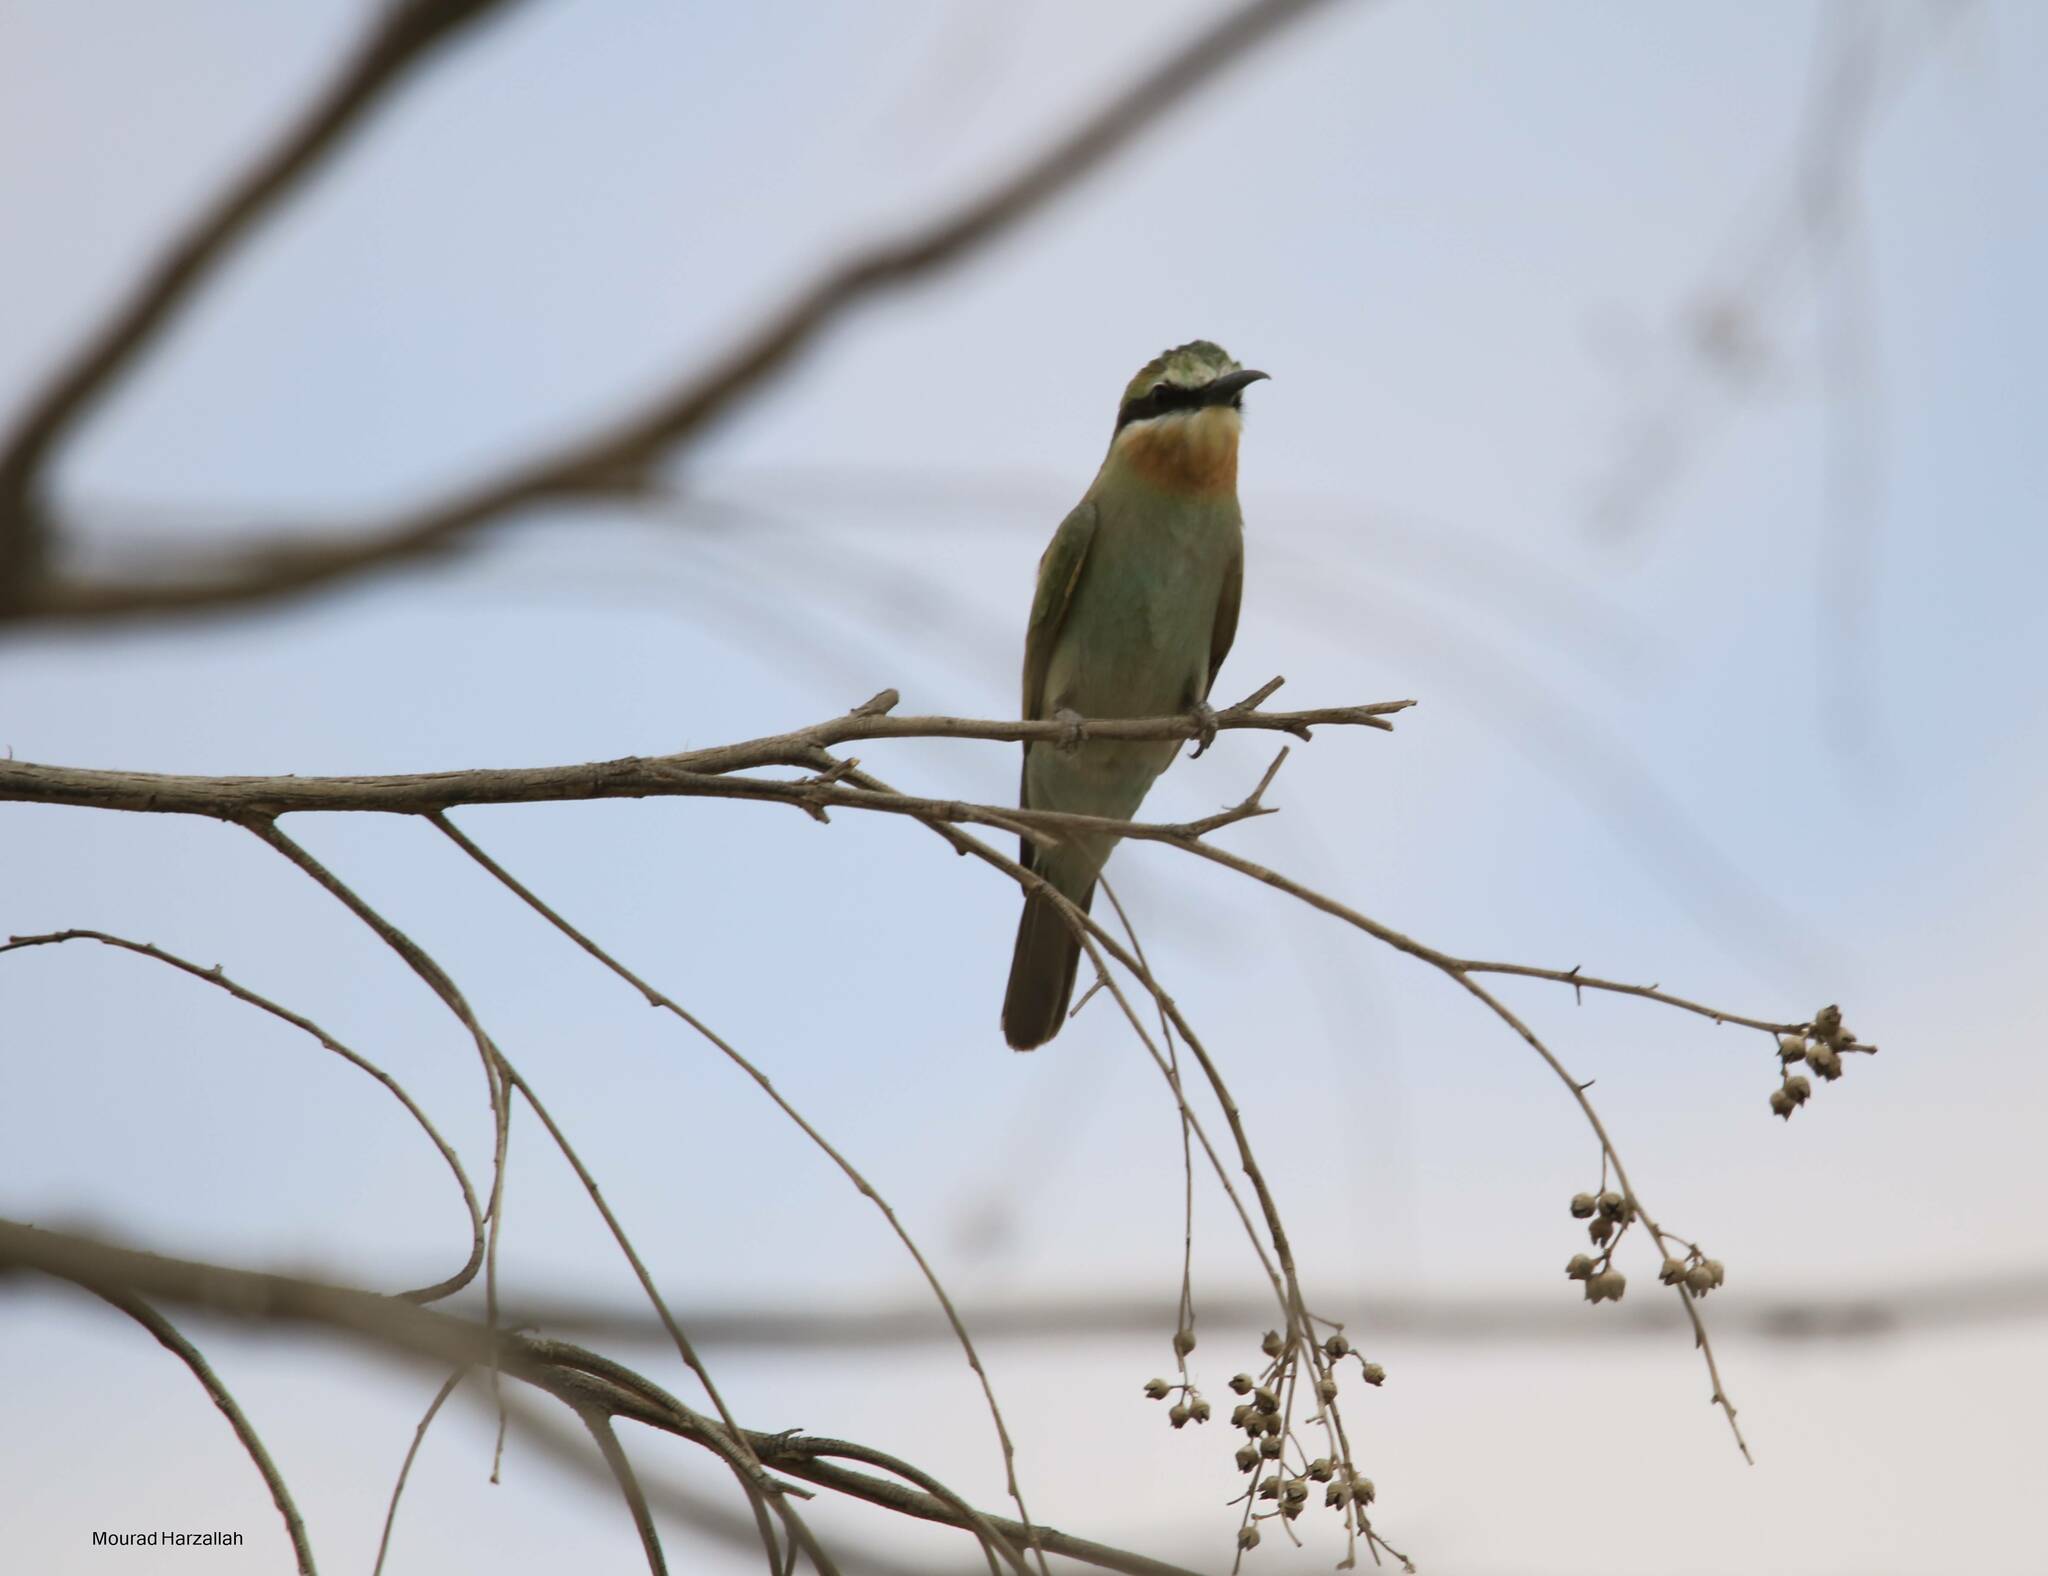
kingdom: Animalia
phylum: Chordata
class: Aves
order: Coraciiformes
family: Meropidae
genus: Merops
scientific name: Merops persicus
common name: Blue-cheeked bee-eater
